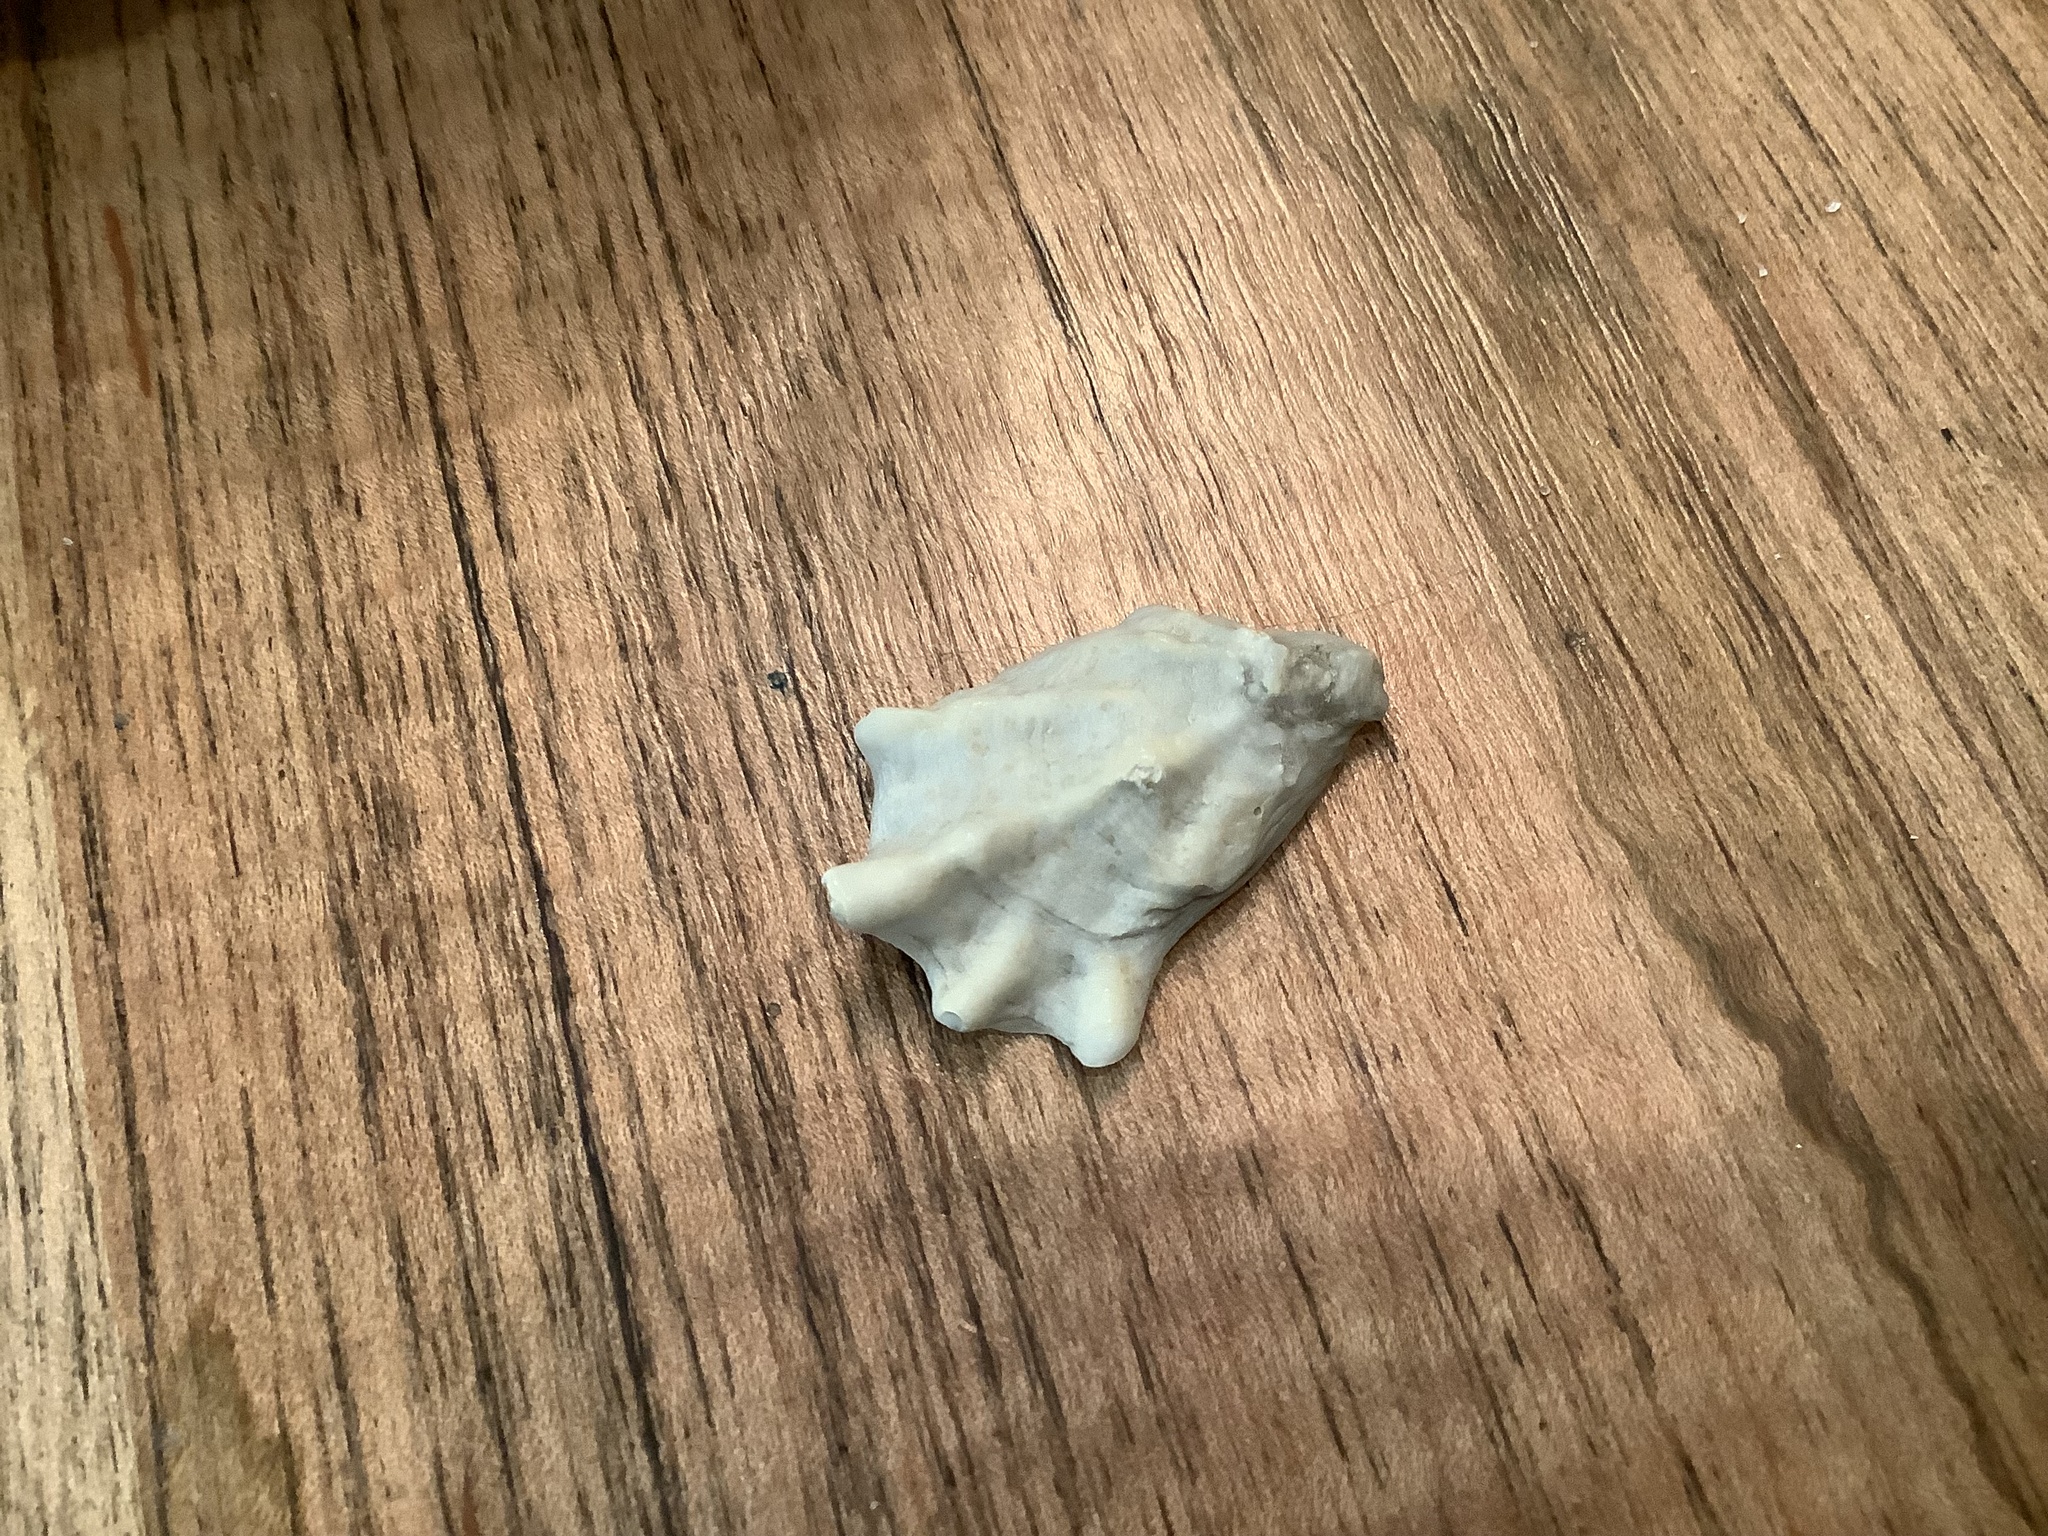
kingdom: Animalia
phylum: Mollusca
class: Bivalvia
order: Ostreida
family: Ostreidae
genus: Ostrea
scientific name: Ostrea equestris
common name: Crested oyster
